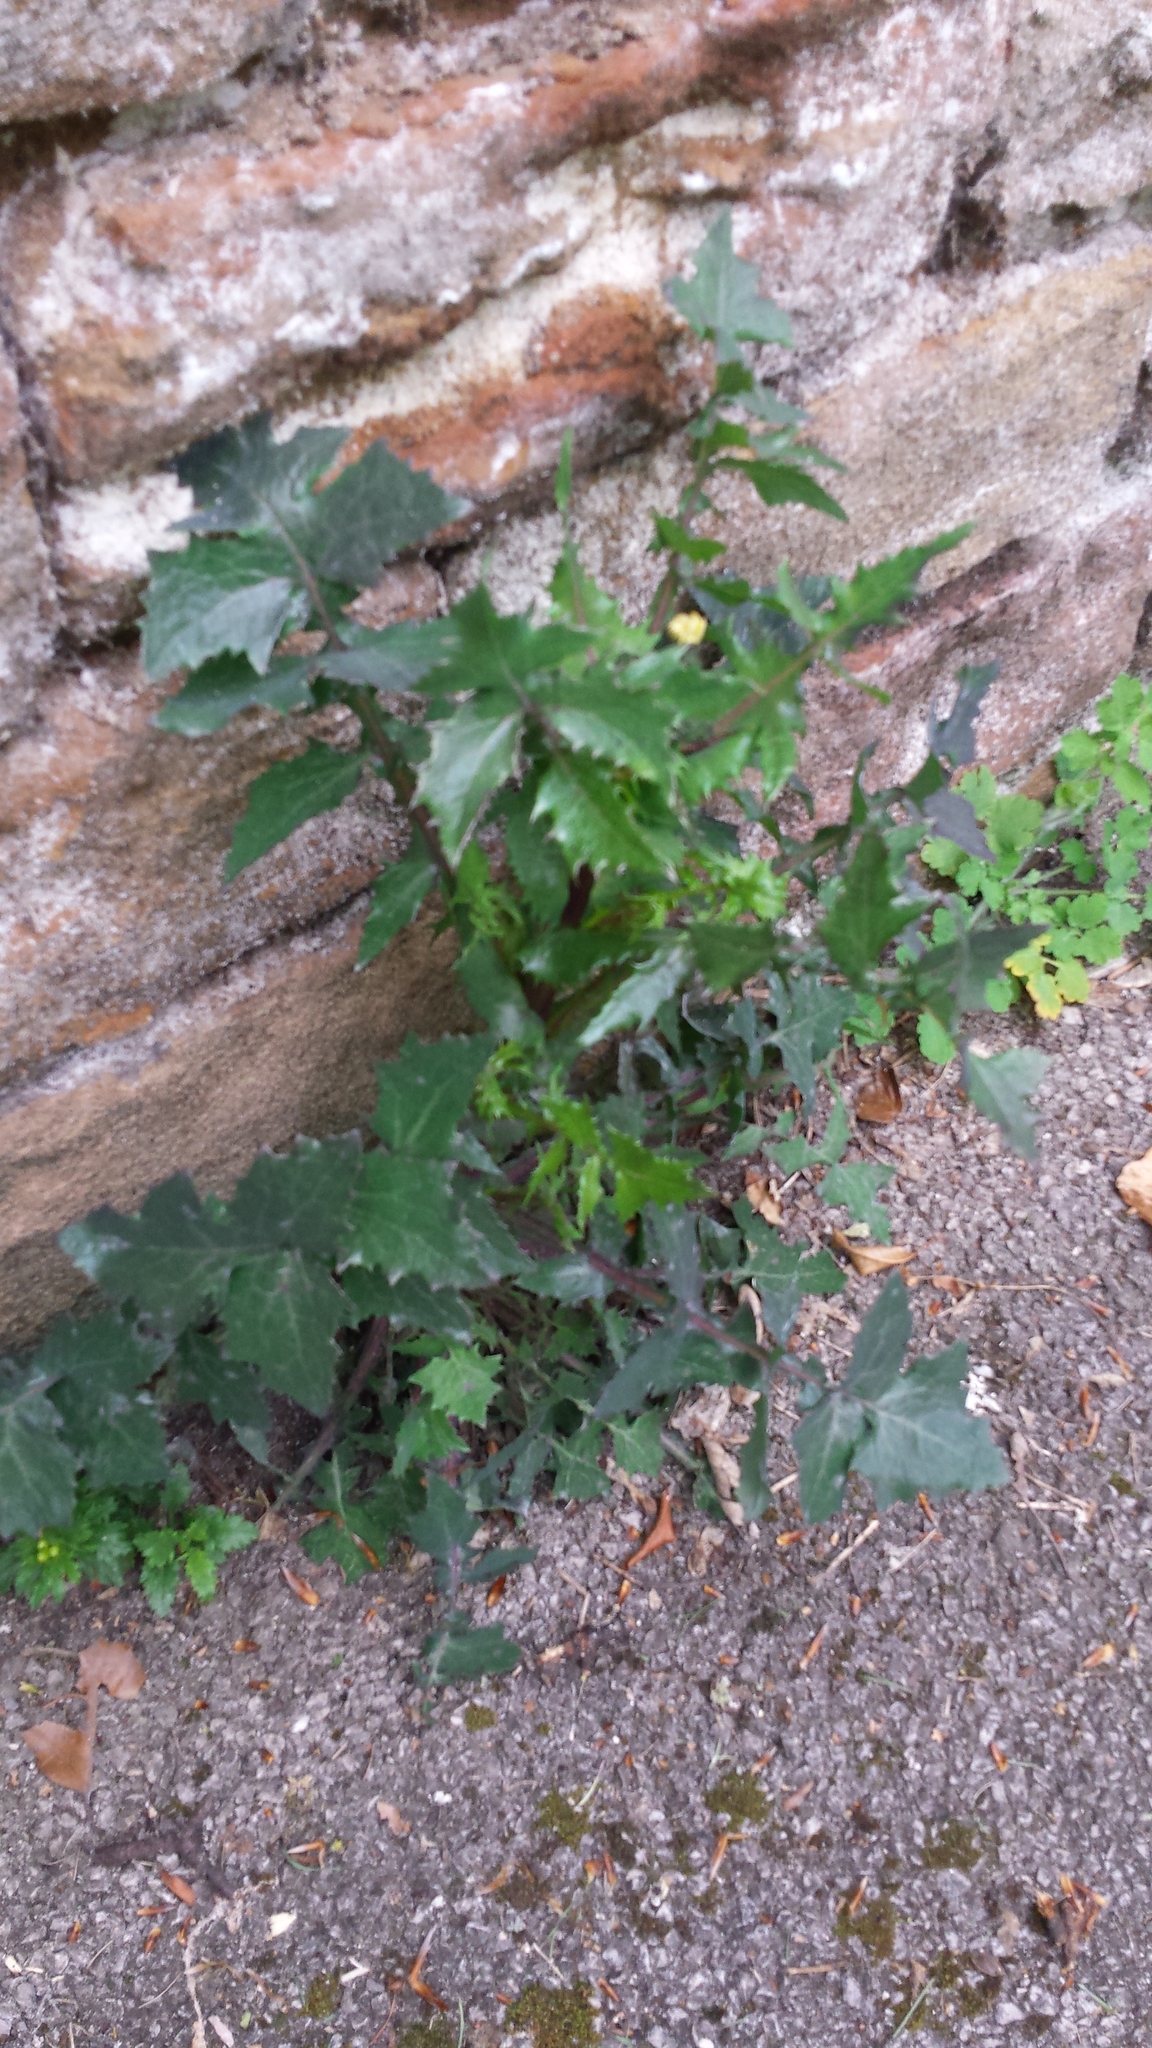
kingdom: Plantae
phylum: Tracheophyta
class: Magnoliopsida
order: Asterales
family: Asteraceae
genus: Sonchus
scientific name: Sonchus oleraceus
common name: Common sowthistle
